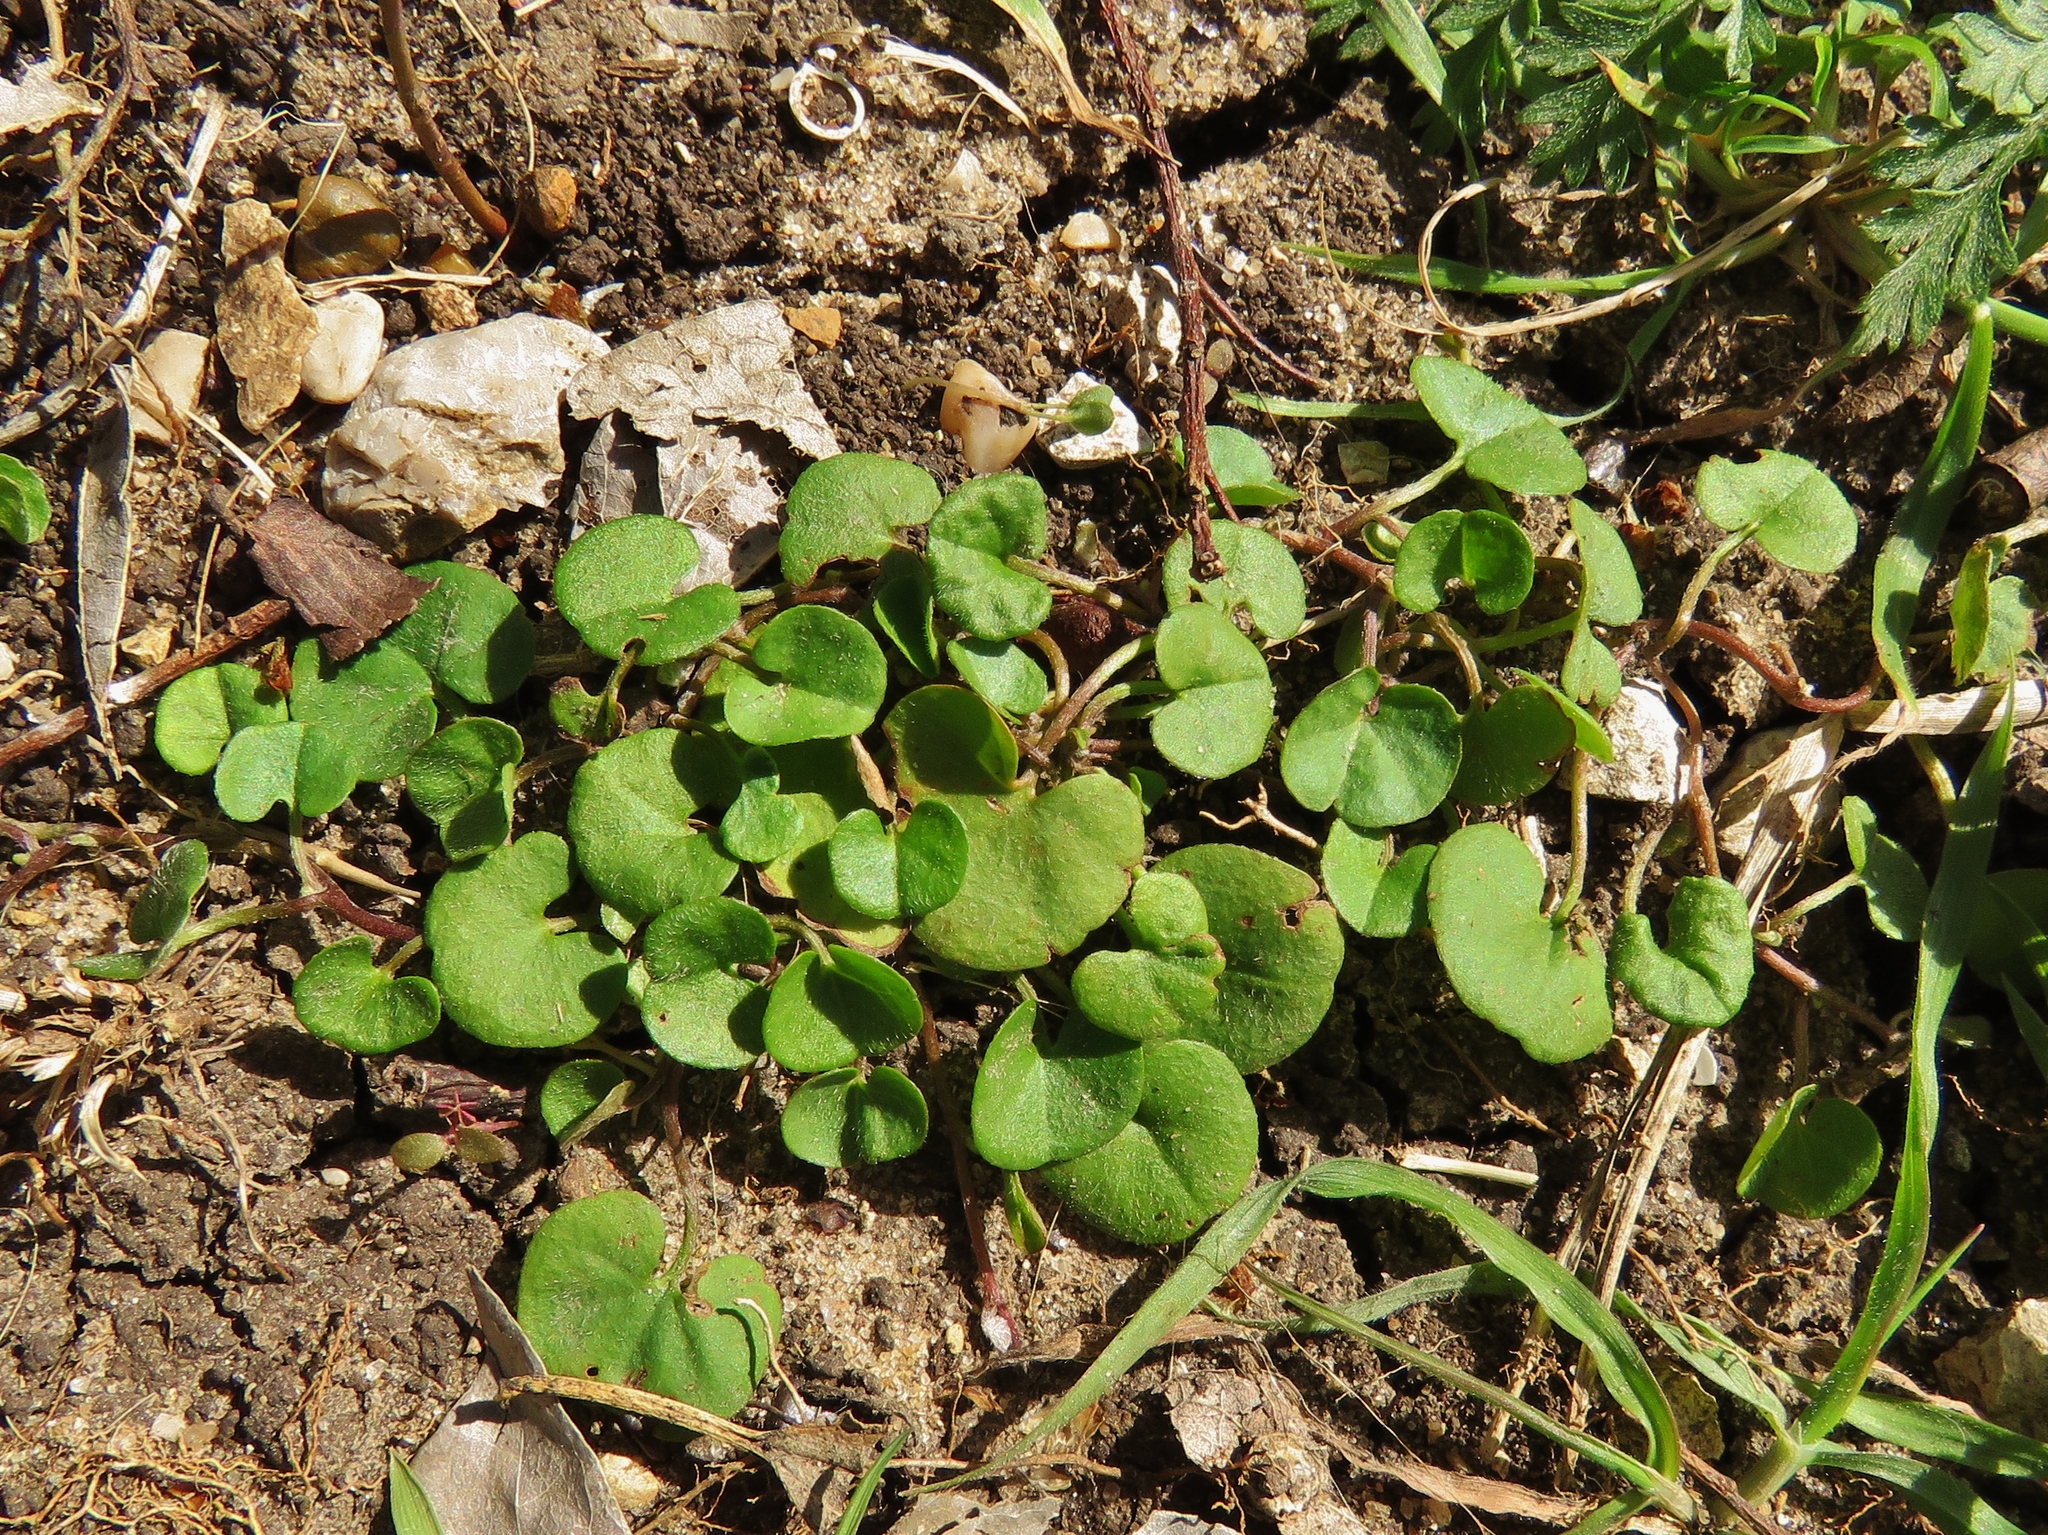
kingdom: Plantae
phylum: Tracheophyta
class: Magnoliopsida
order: Solanales
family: Convolvulaceae
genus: Dichondra
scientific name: Dichondra carolinensis
